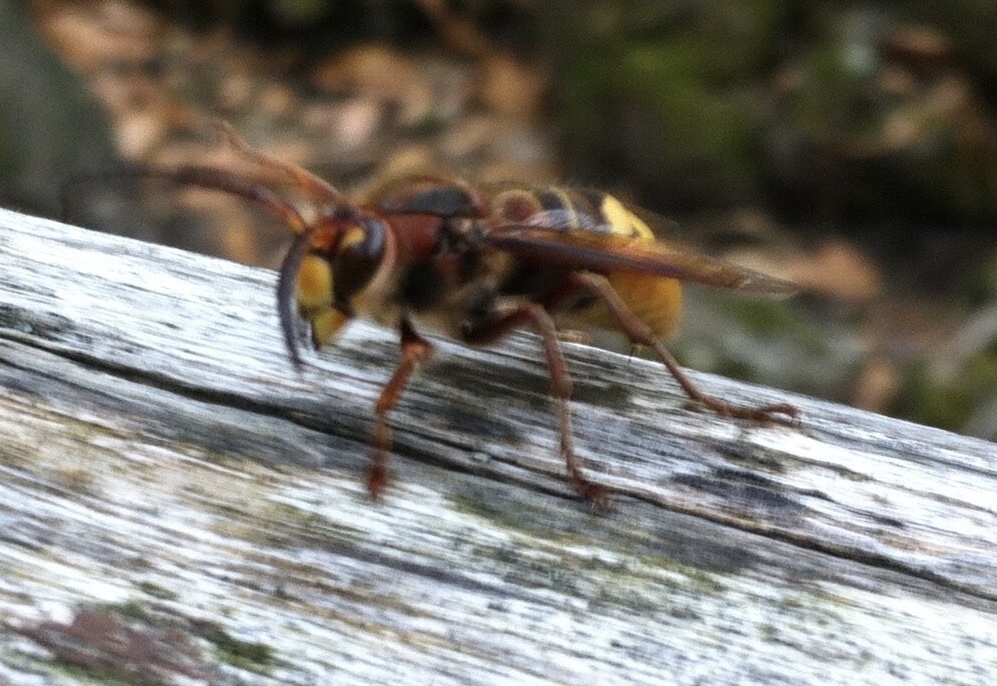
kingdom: Animalia
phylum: Arthropoda
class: Insecta
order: Hymenoptera
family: Vespidae
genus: Vespa
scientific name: Vespa crabro
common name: Hornet
